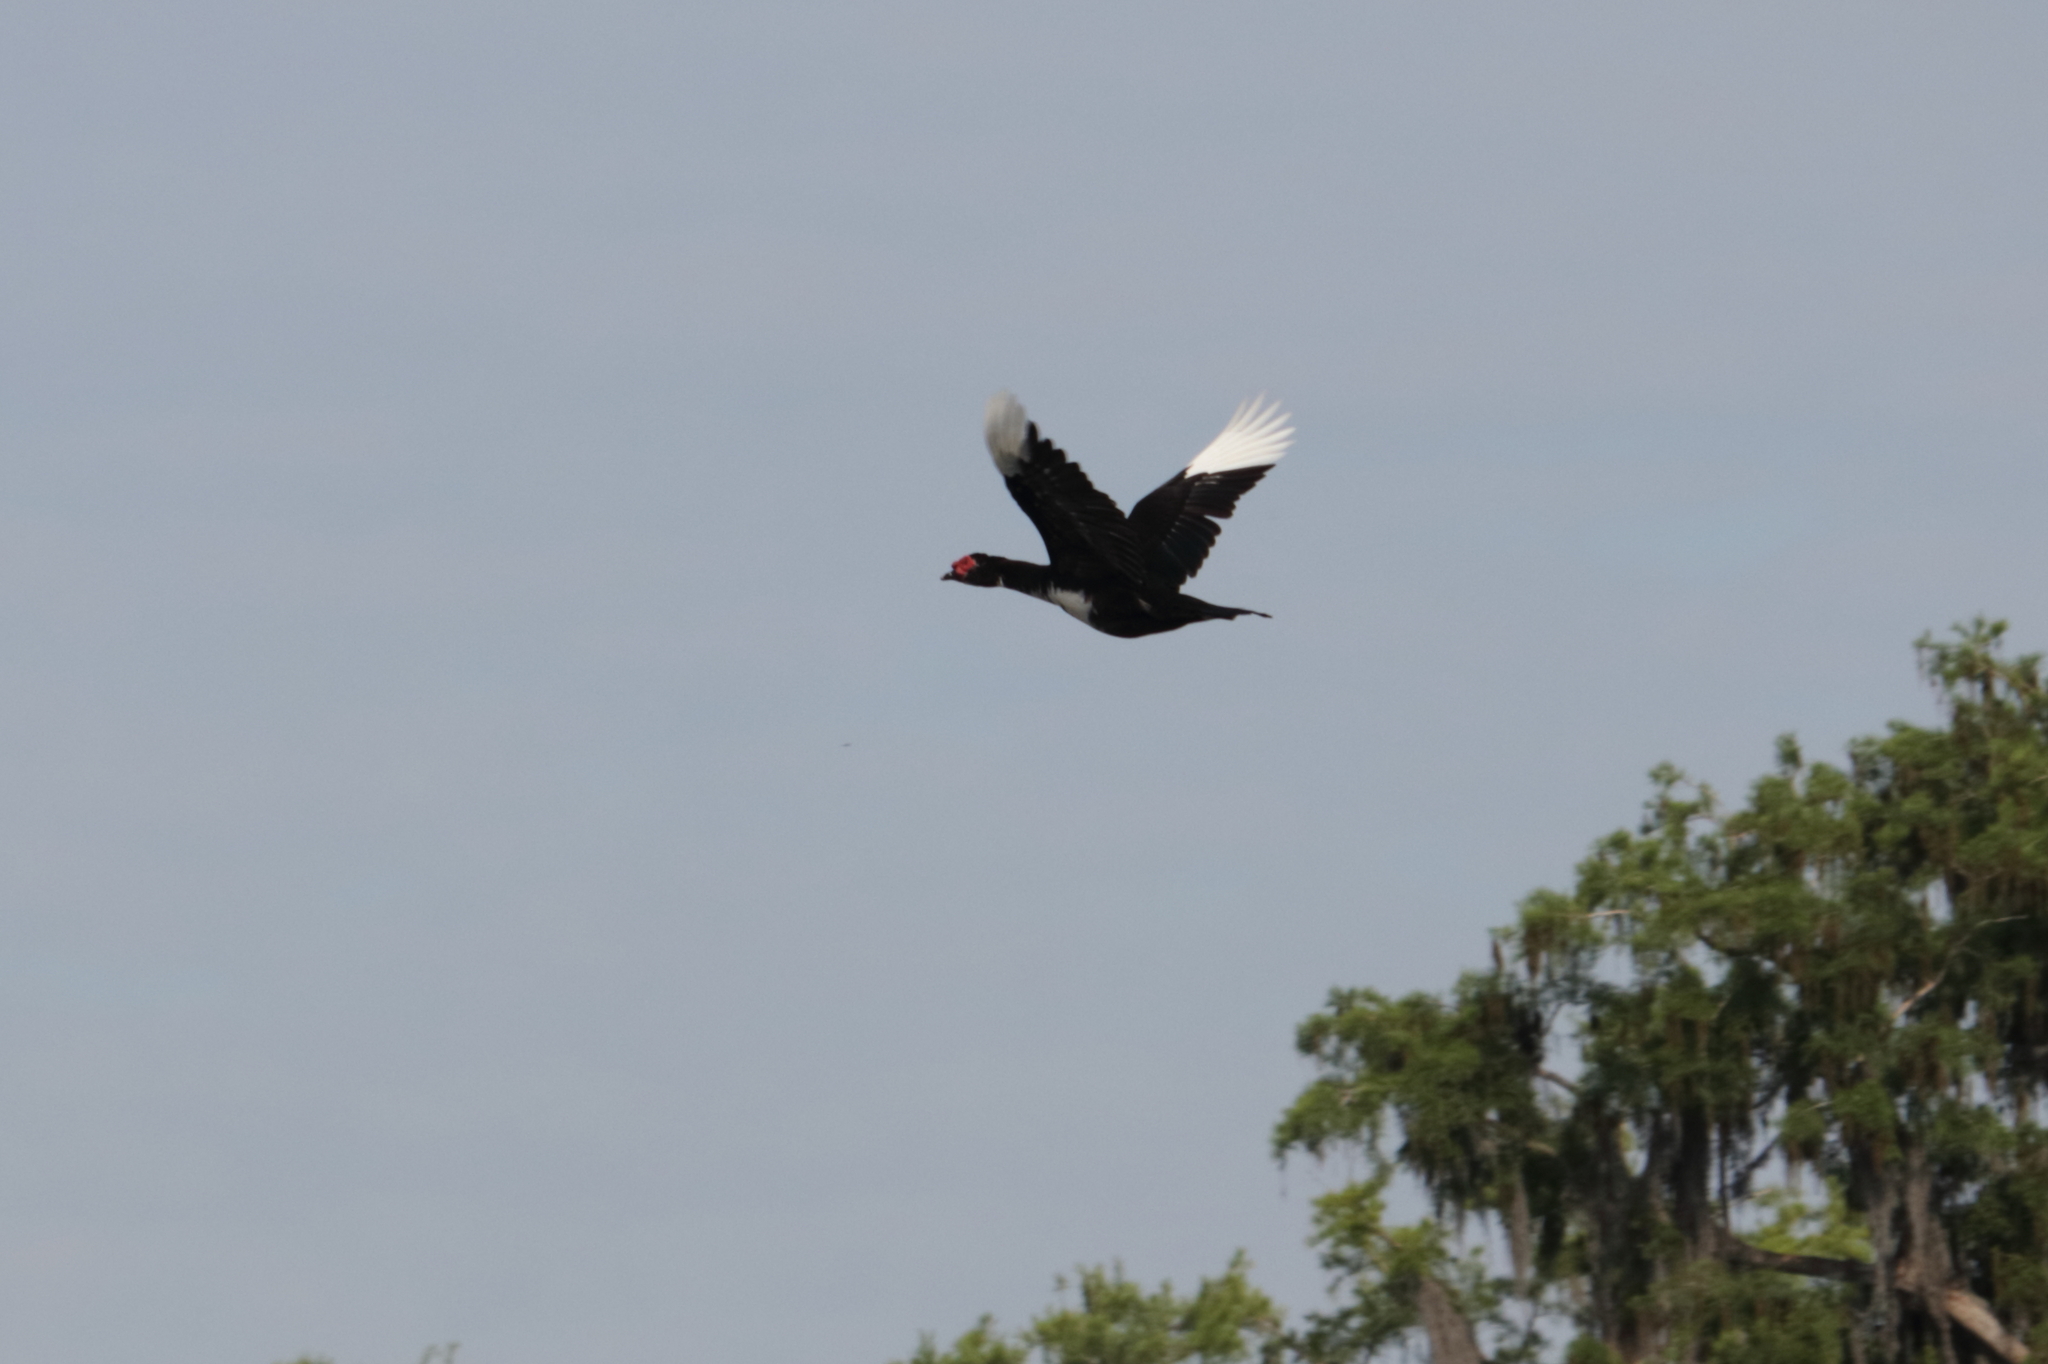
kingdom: Animalia
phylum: Chordata
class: Aves
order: Anseriformes
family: Anatidae
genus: Cairina
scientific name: Cairina moschata
